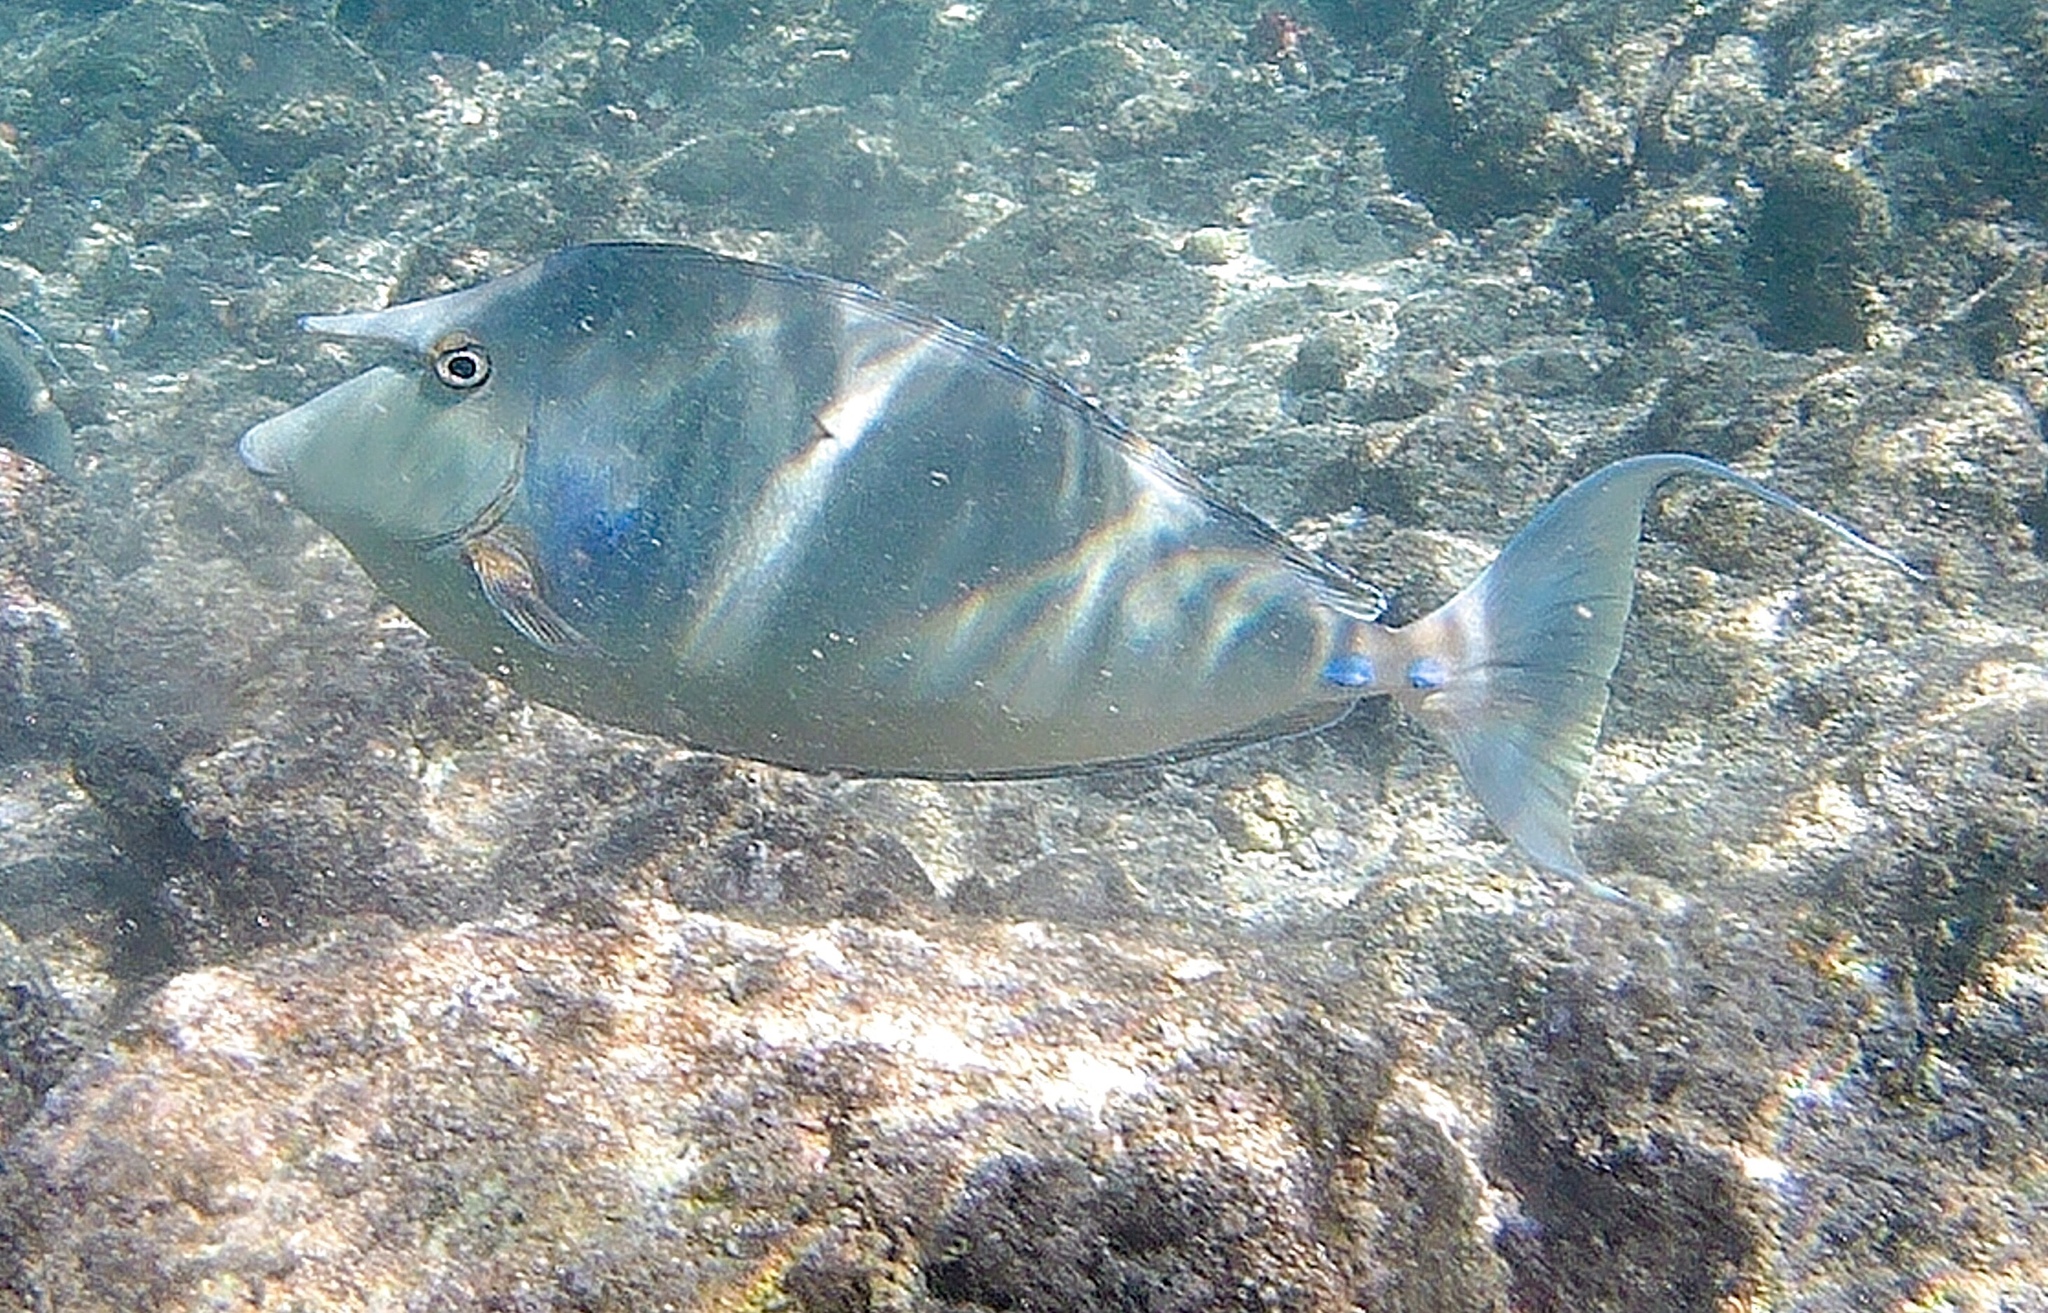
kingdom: Animalia
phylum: Chordata
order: Perciformes
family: Acanthuridae
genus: Naso
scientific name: Naso unicornis
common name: Bluespine unicornfish
